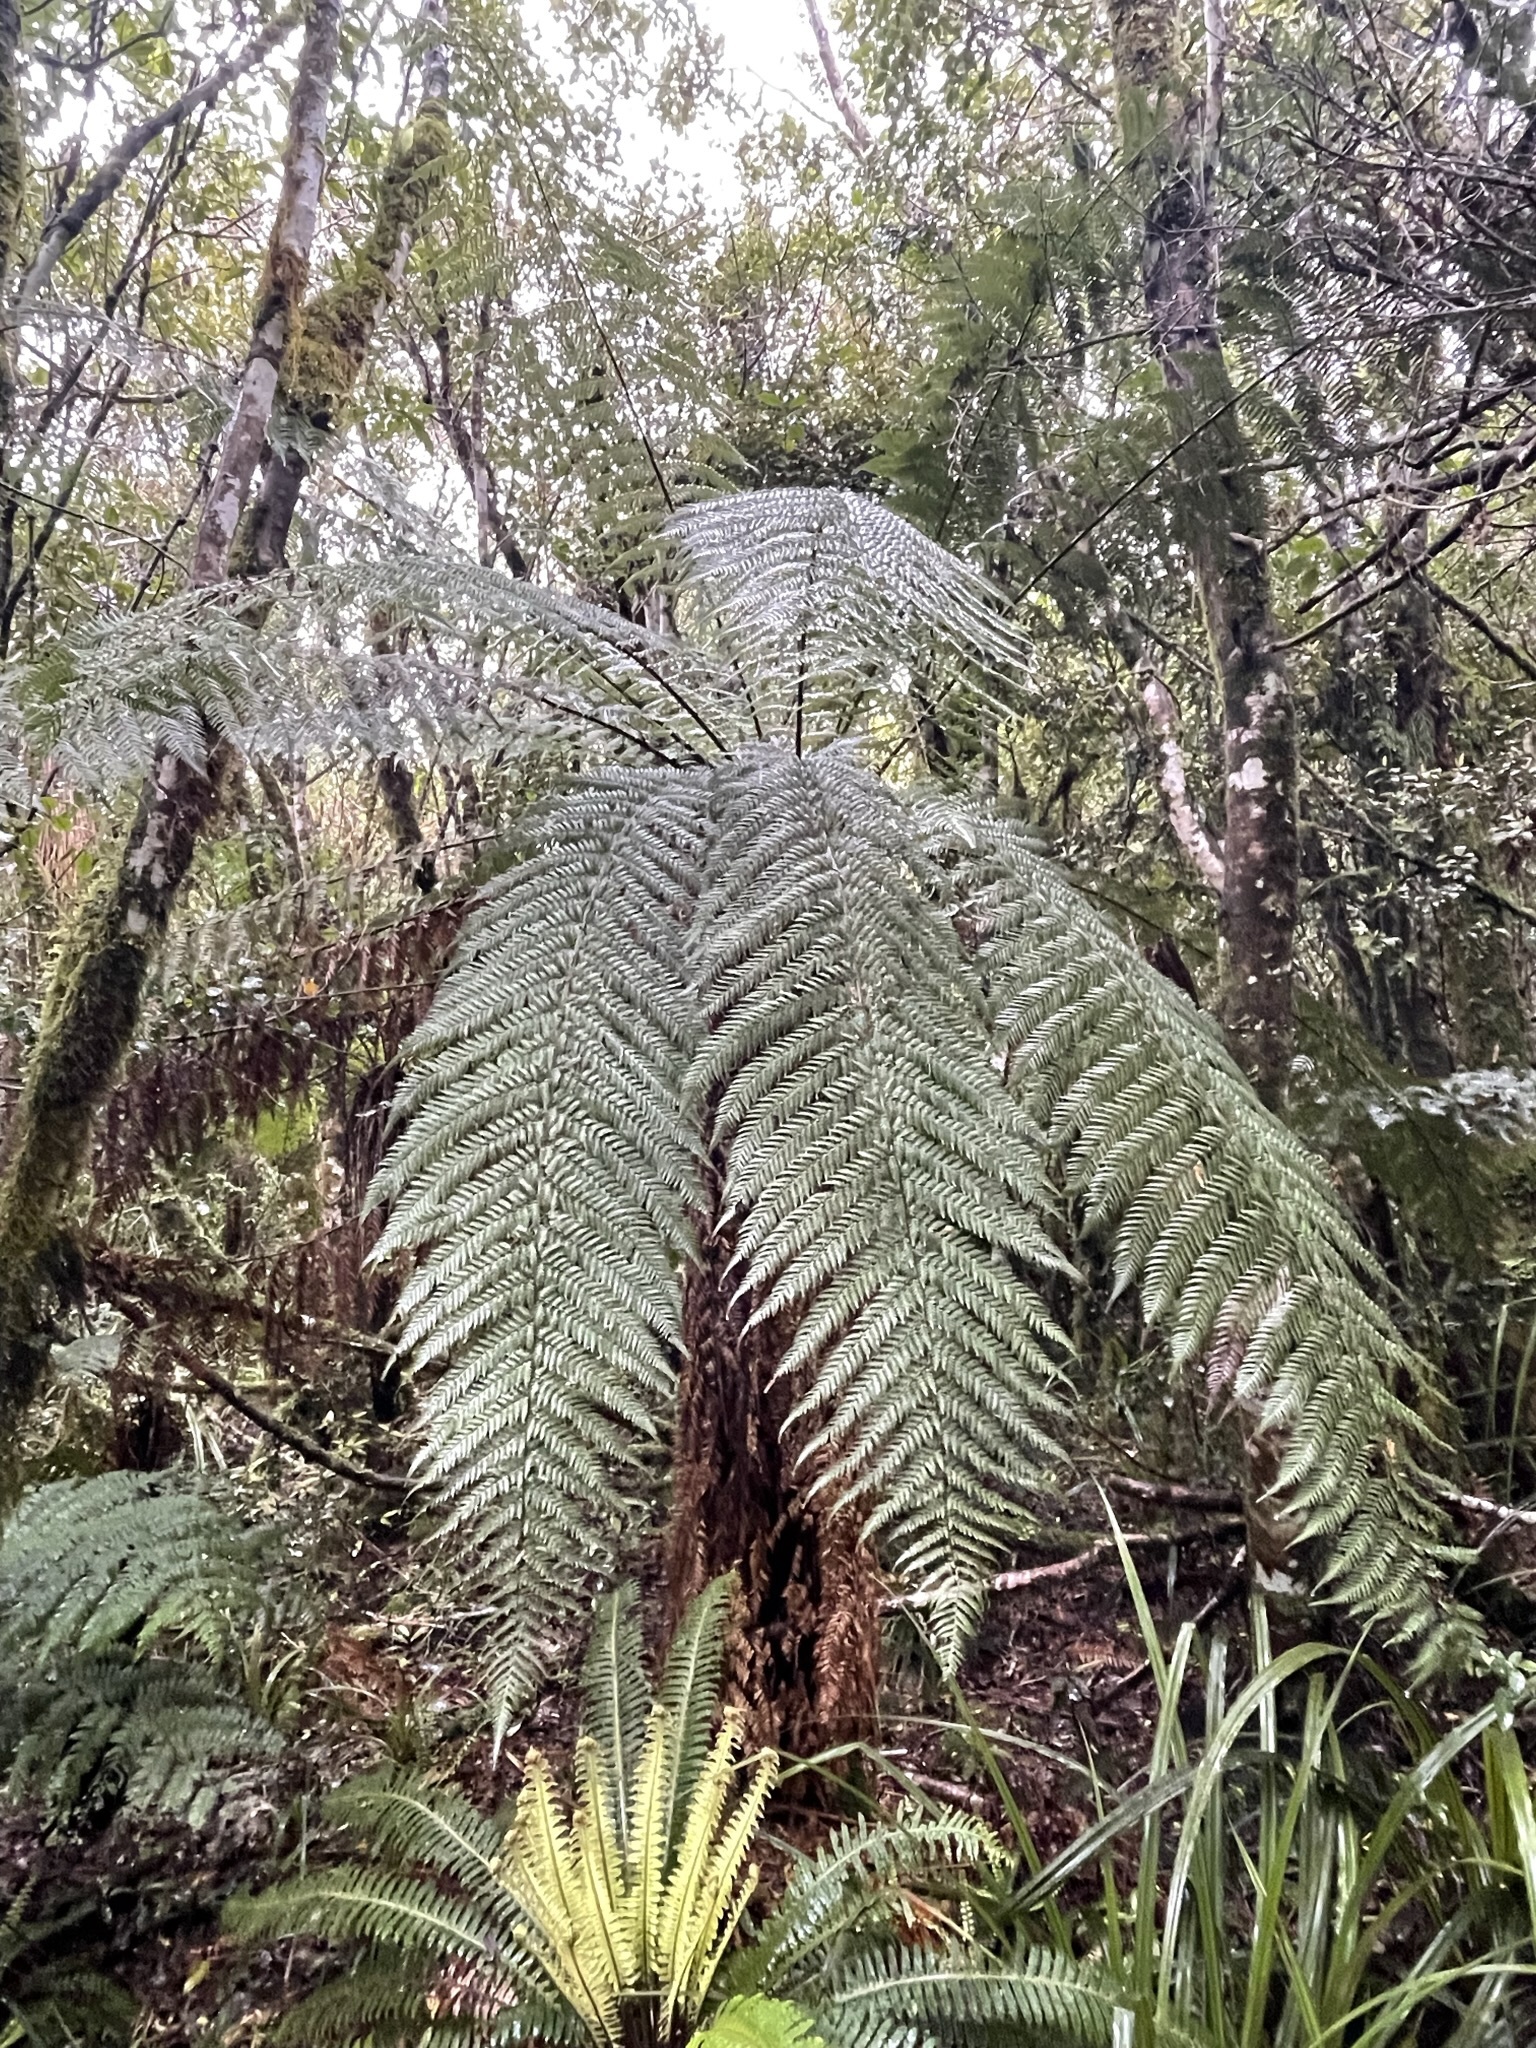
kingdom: Plantae
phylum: Tracheophyta
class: Polypodiopsida
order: Cyatheales
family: Dicksoniaceae
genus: Dicksonia
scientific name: Dicksonia squarrosa
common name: Hard treefern
